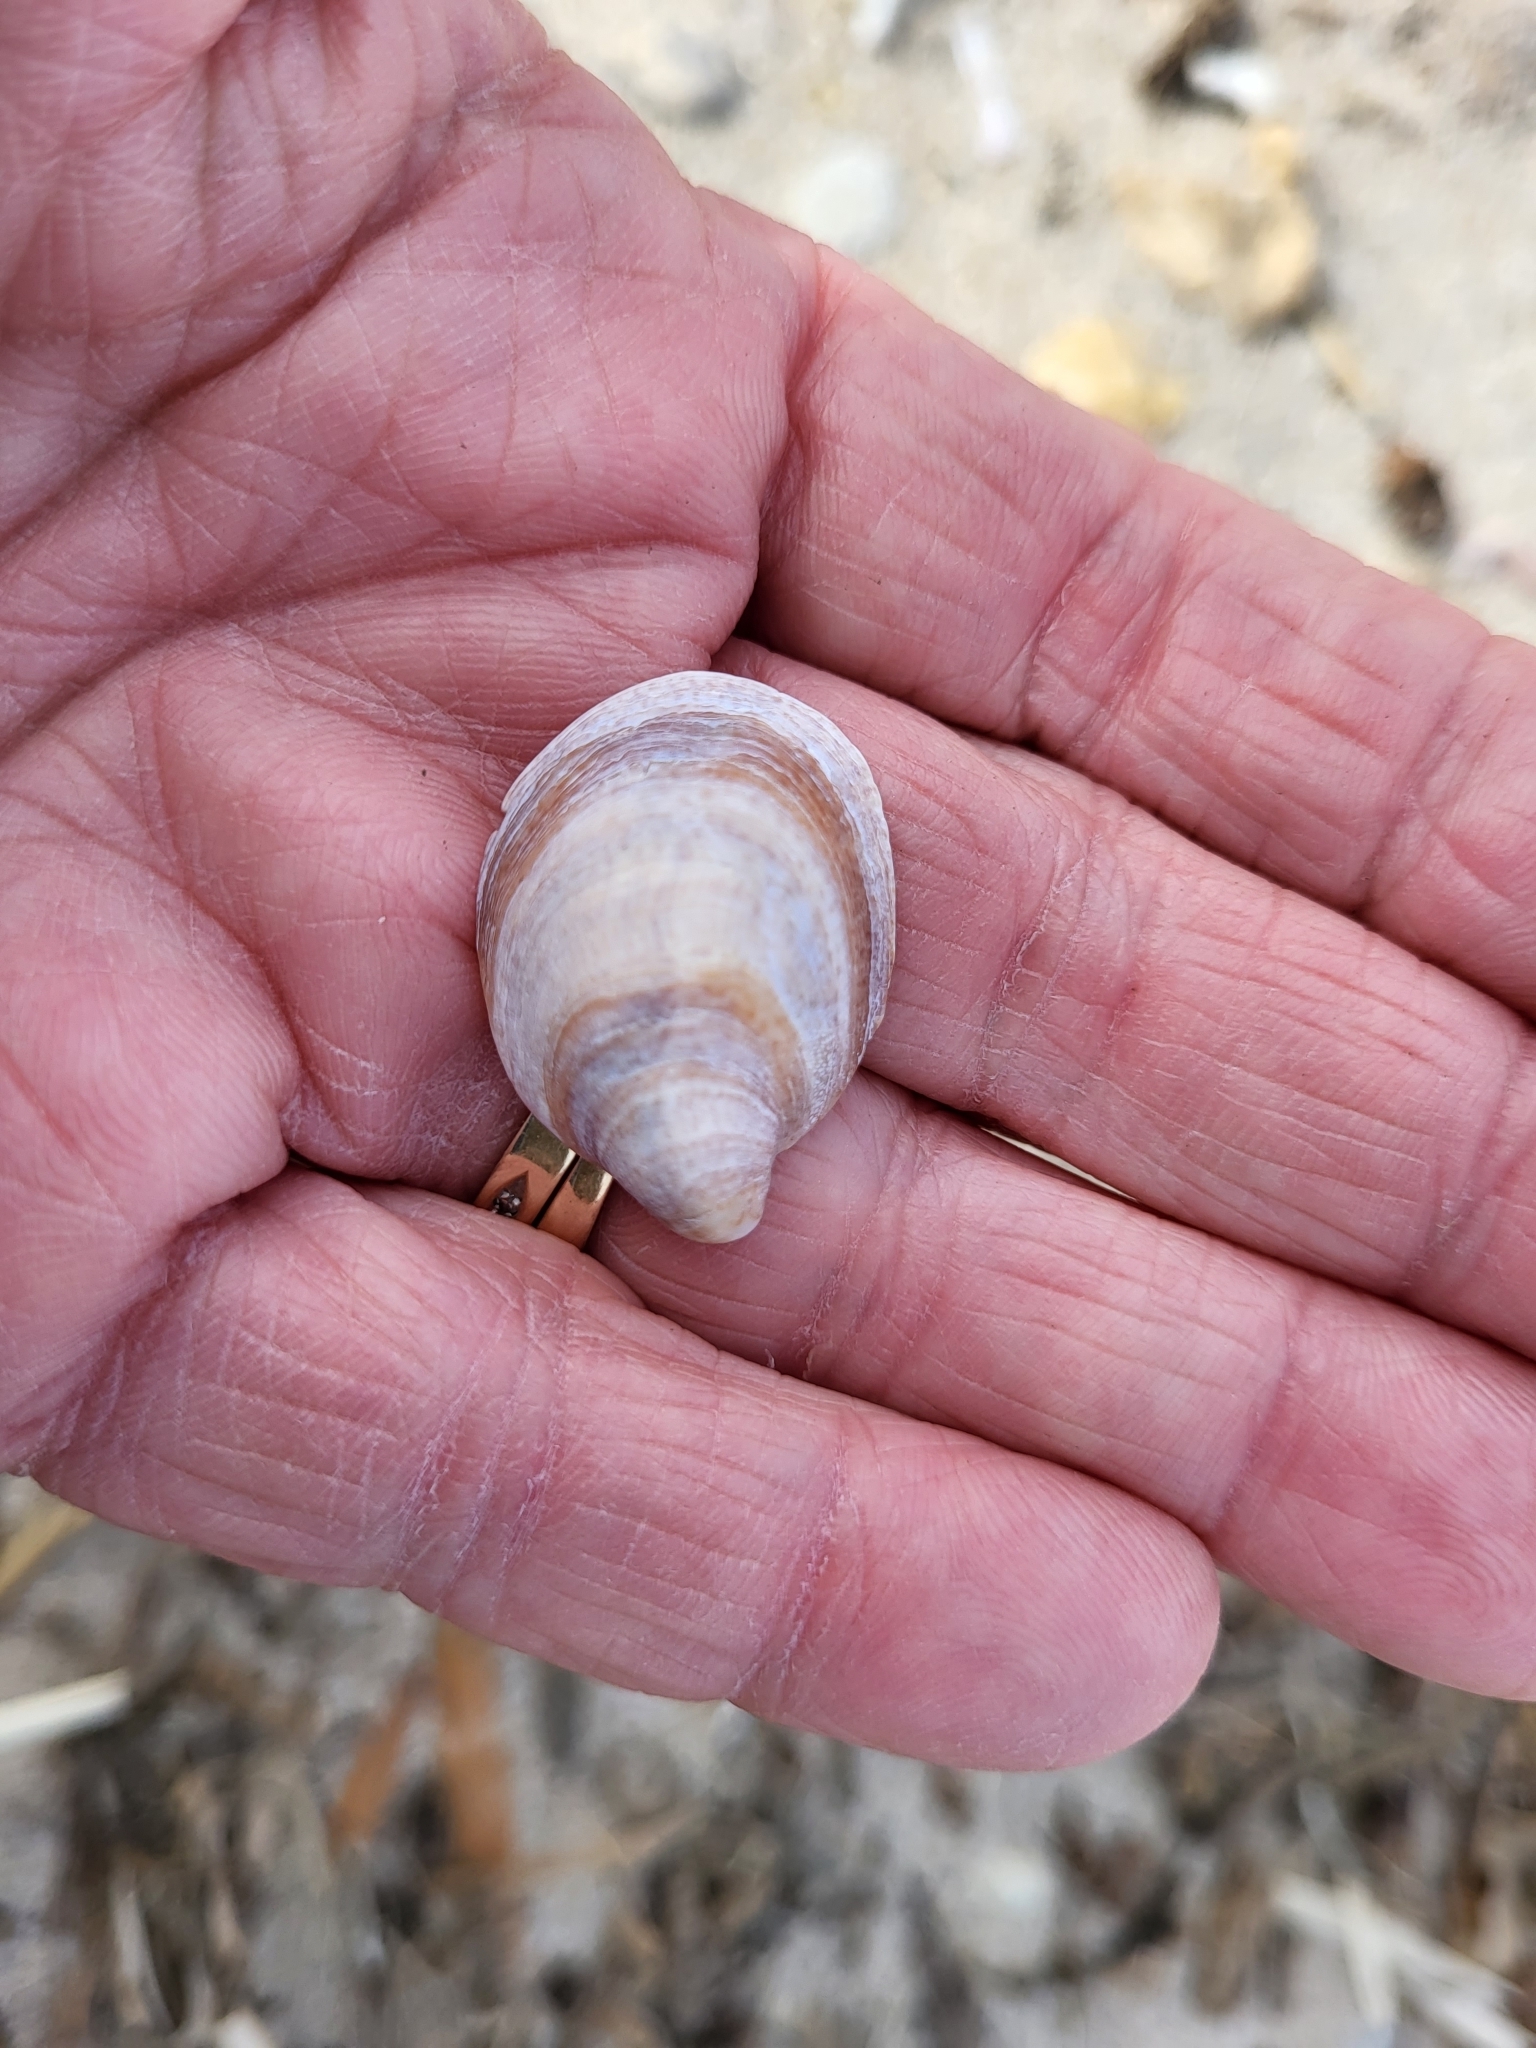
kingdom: Animalia
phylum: Mollusca
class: Gastropoda
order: Littorinimorpha
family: Calyptraeidae
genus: Crepidula
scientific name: Crepidula fornicata
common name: Slipper limpet
